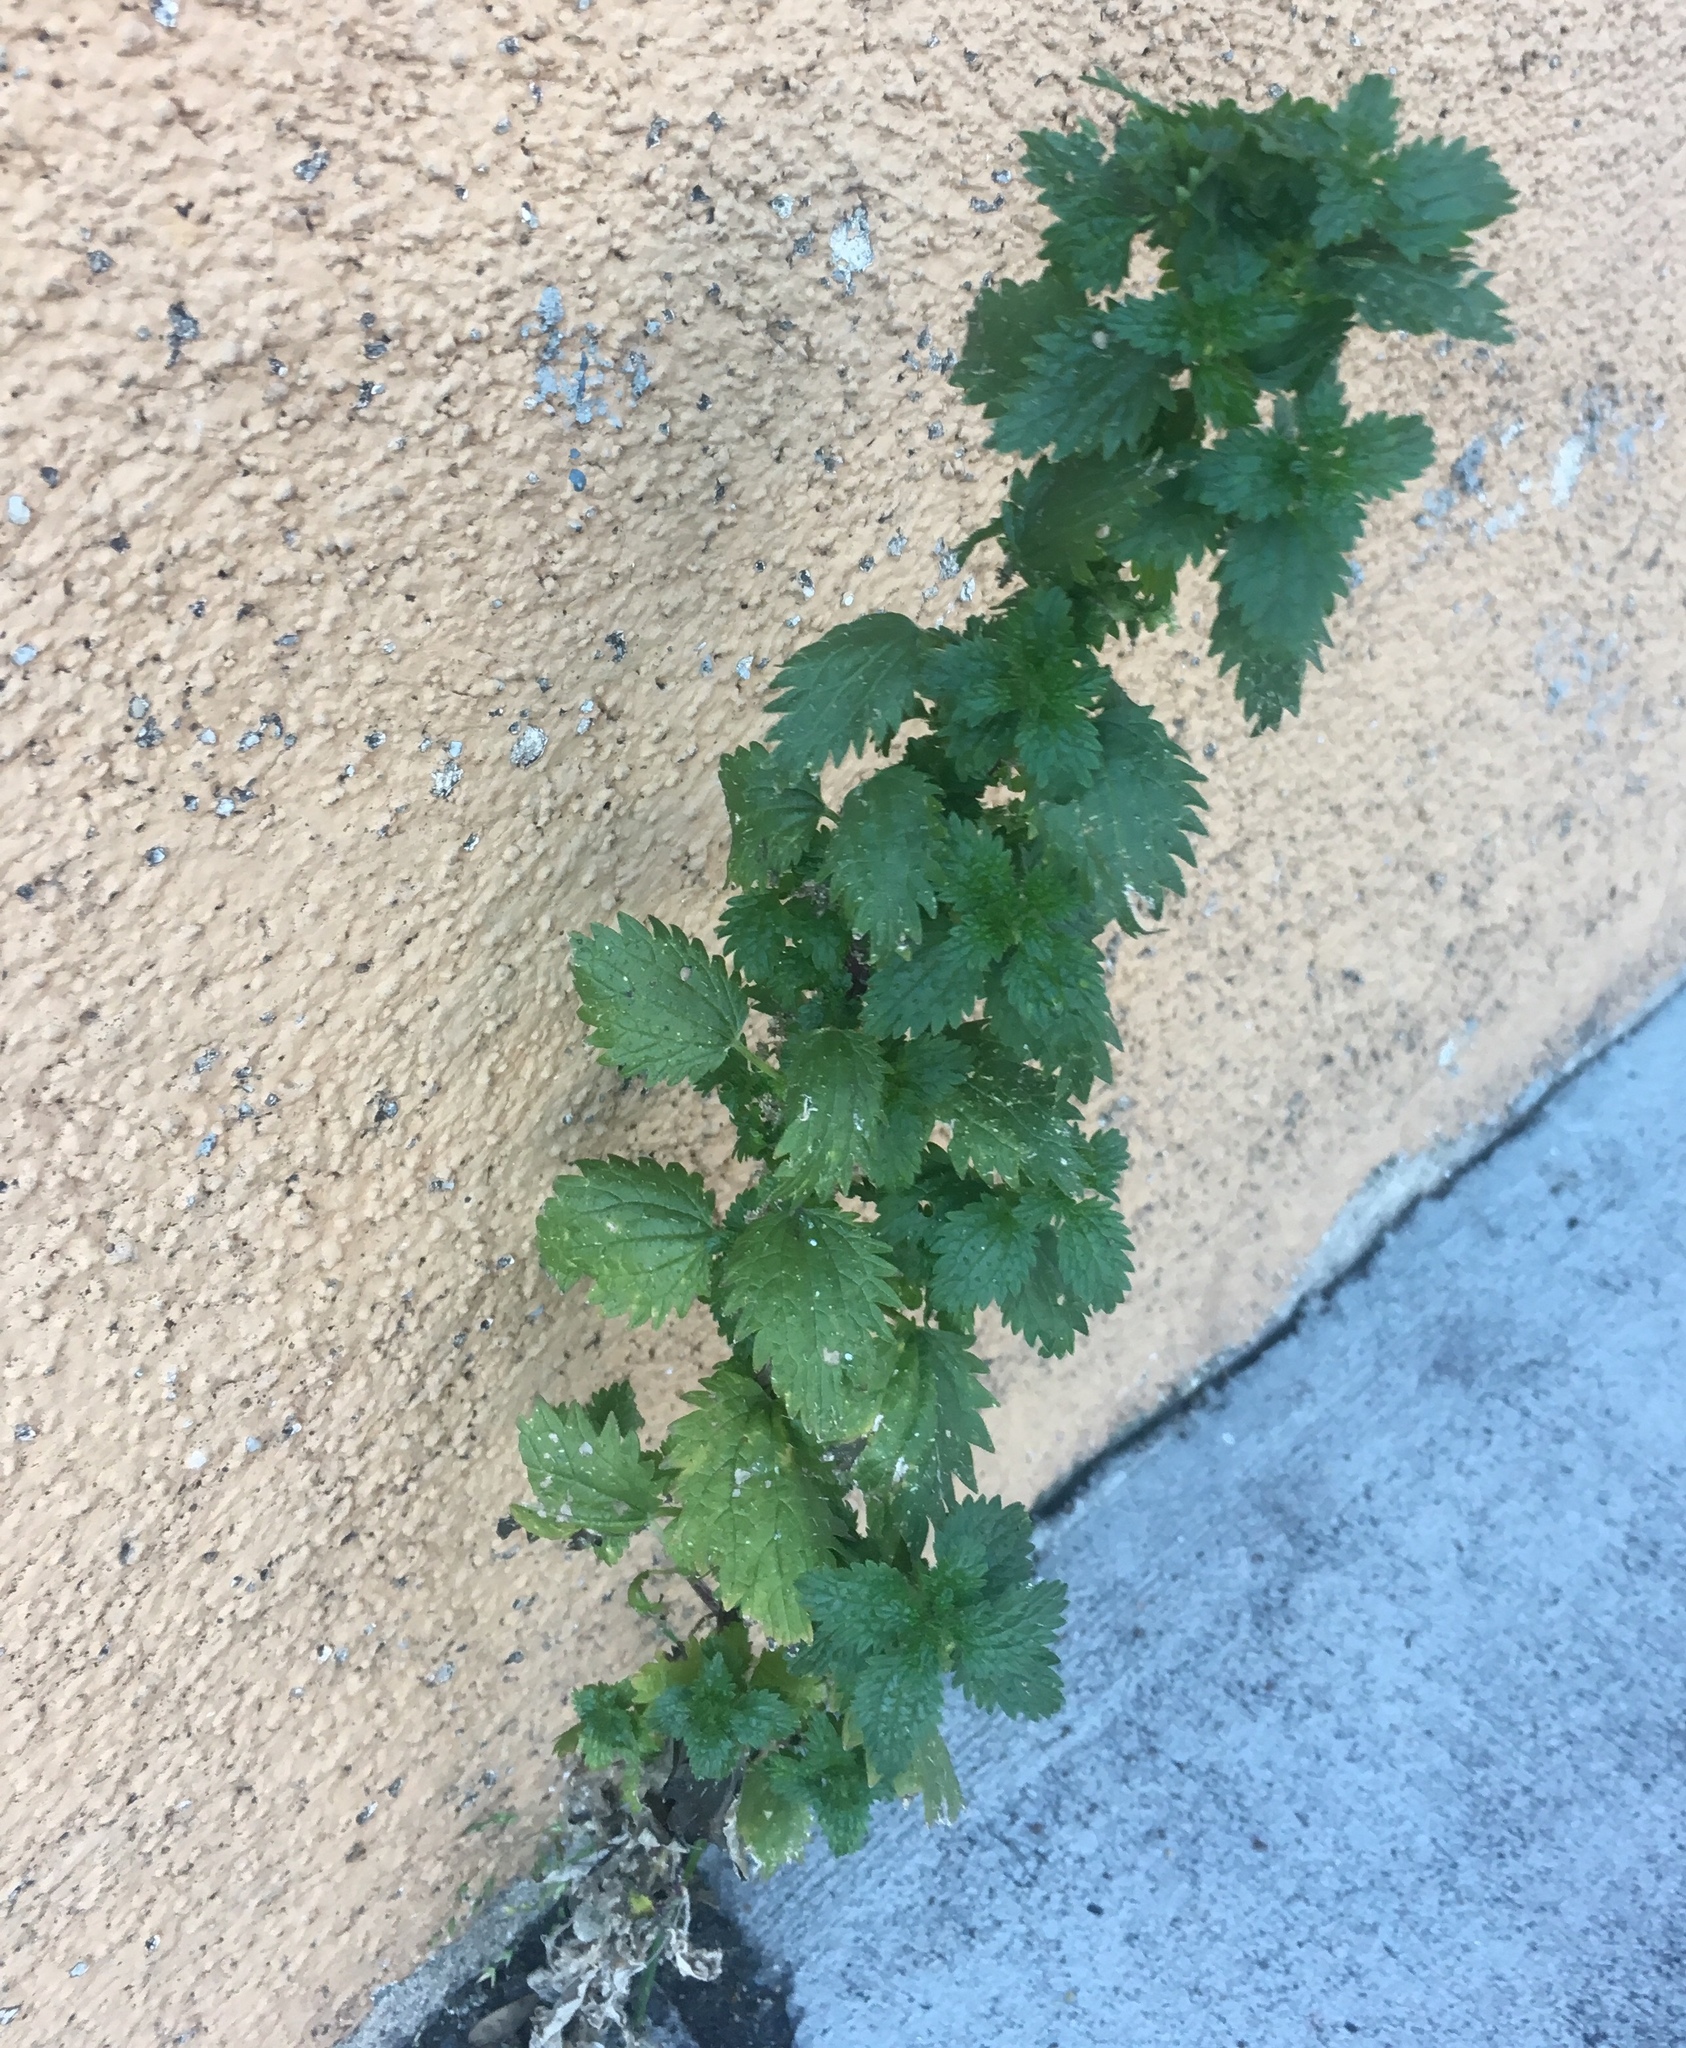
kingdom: Plantae
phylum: Tracheophyta
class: Magnoliopsida
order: Rosales
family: Urticaceae
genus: Urtica
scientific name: Urtica urens
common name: Dwarf nettle
